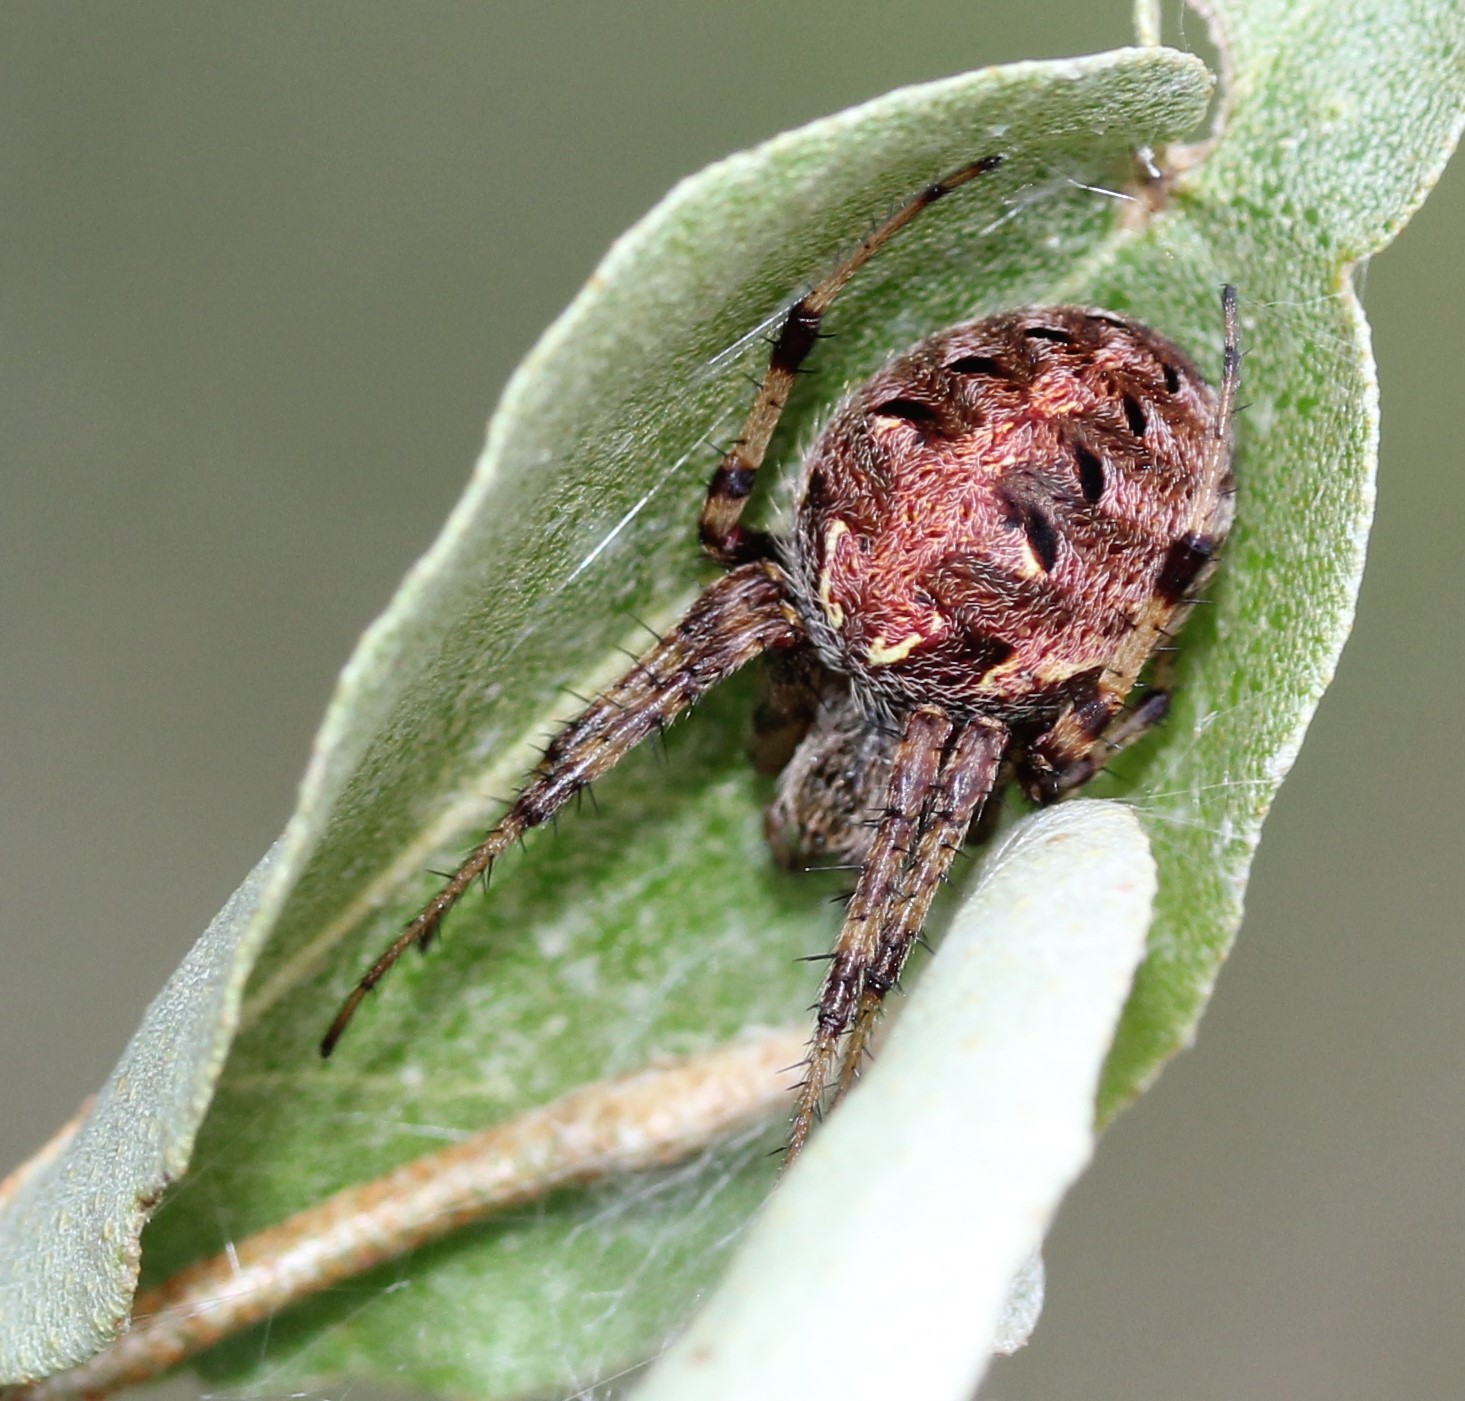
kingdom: Animalia
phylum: Arthropoda
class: Arachnida
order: Araneae
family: Araneidae
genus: Neoscona
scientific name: Neoscona arabesca
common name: Orb weavers
